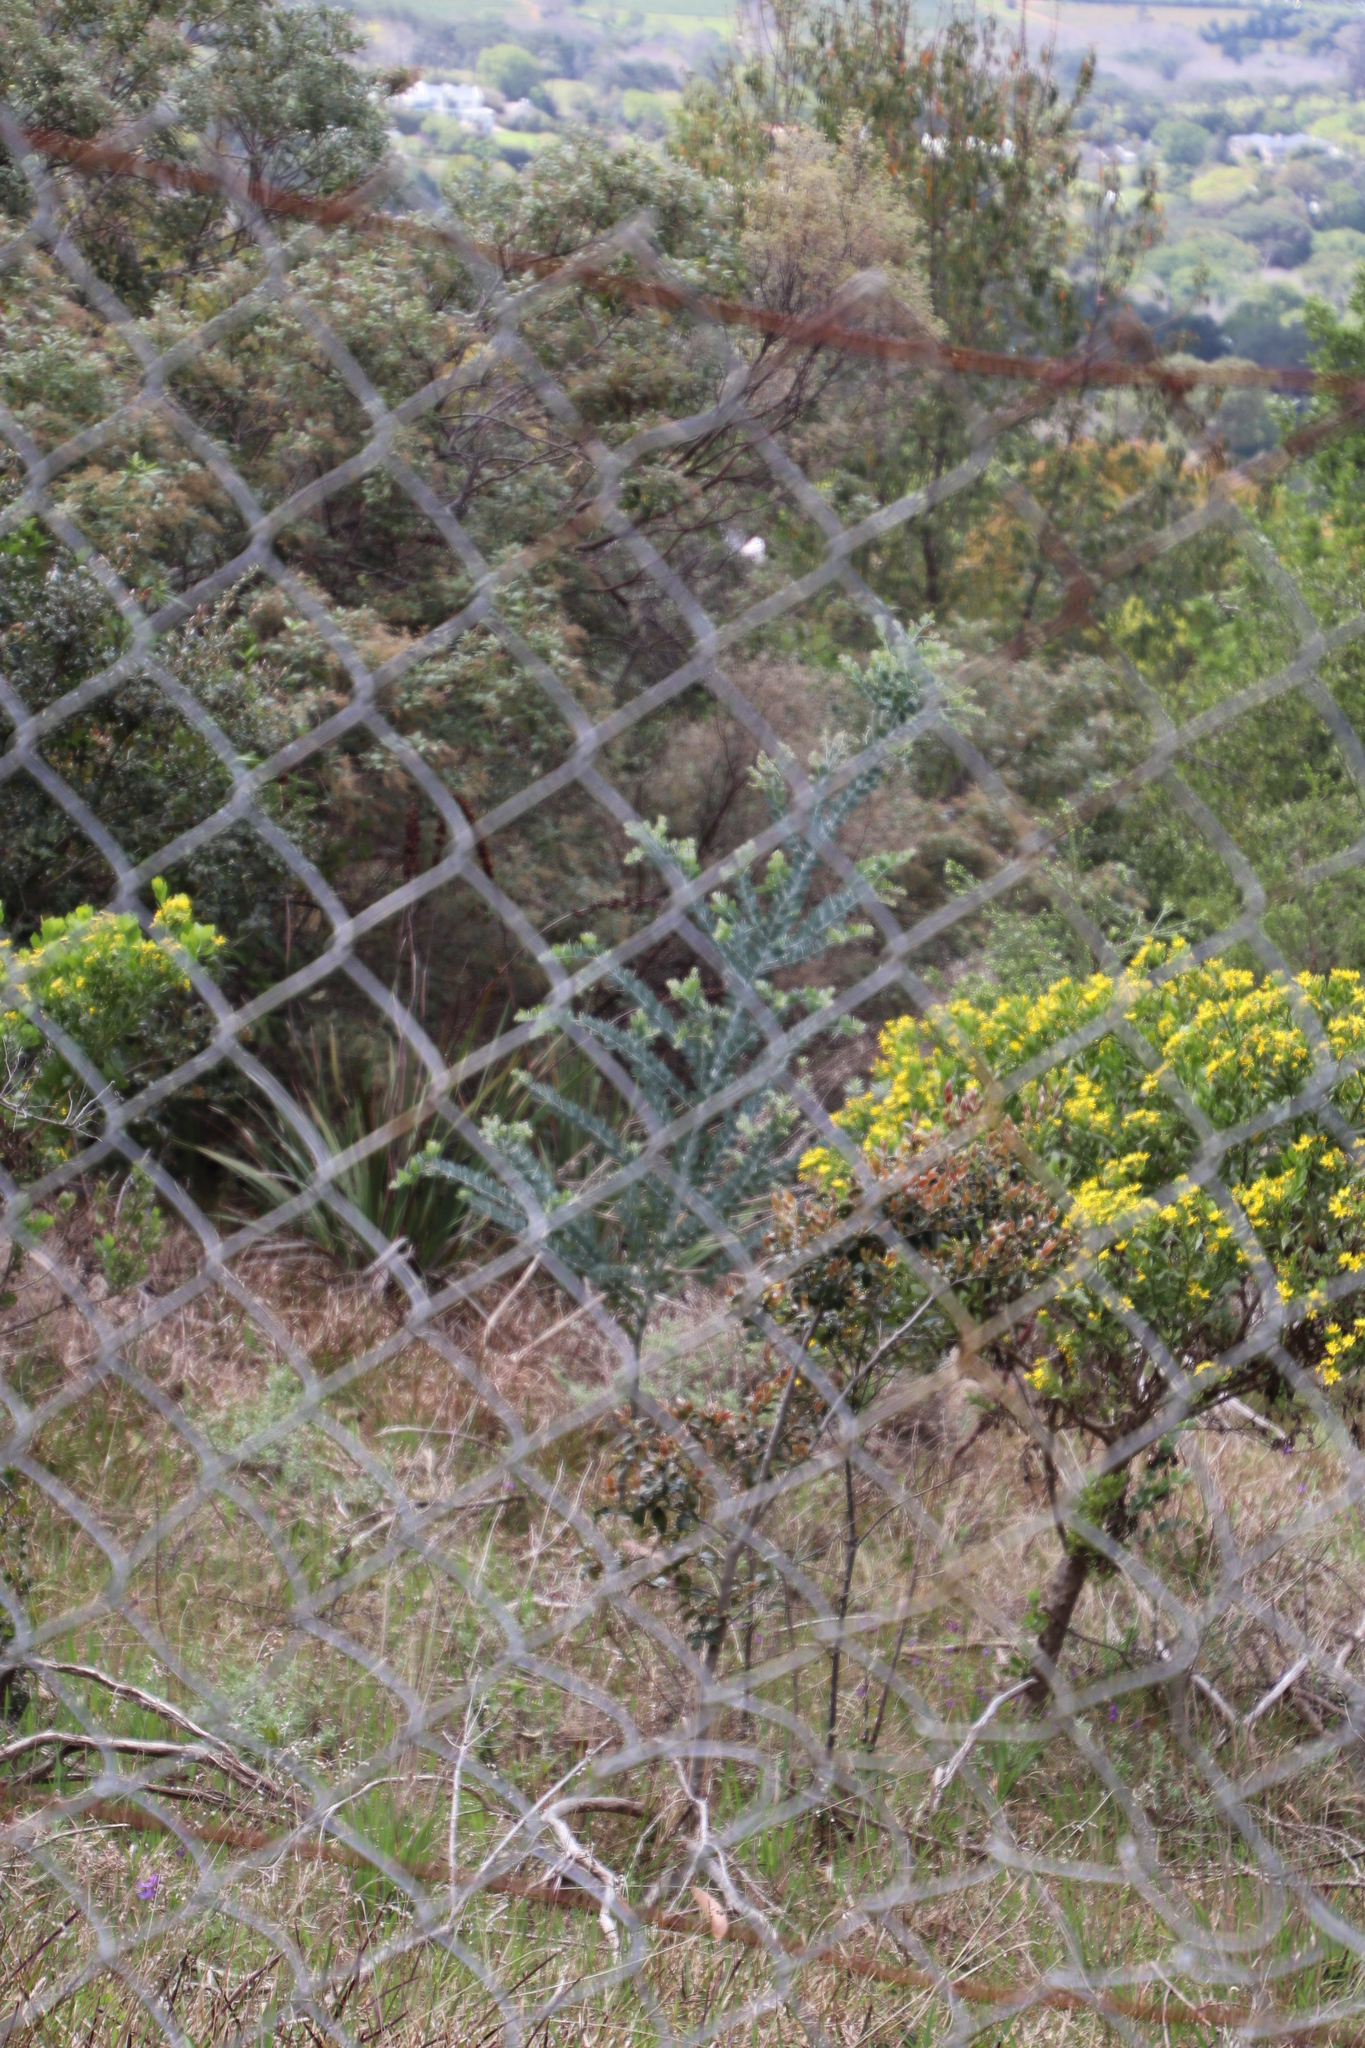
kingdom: Plantae
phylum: Tracheophyta
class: Magnoliopsida
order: Fabales
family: Fabaceae
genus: Acacia
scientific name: Acacia podalyriifolia
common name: Pearl wattle
